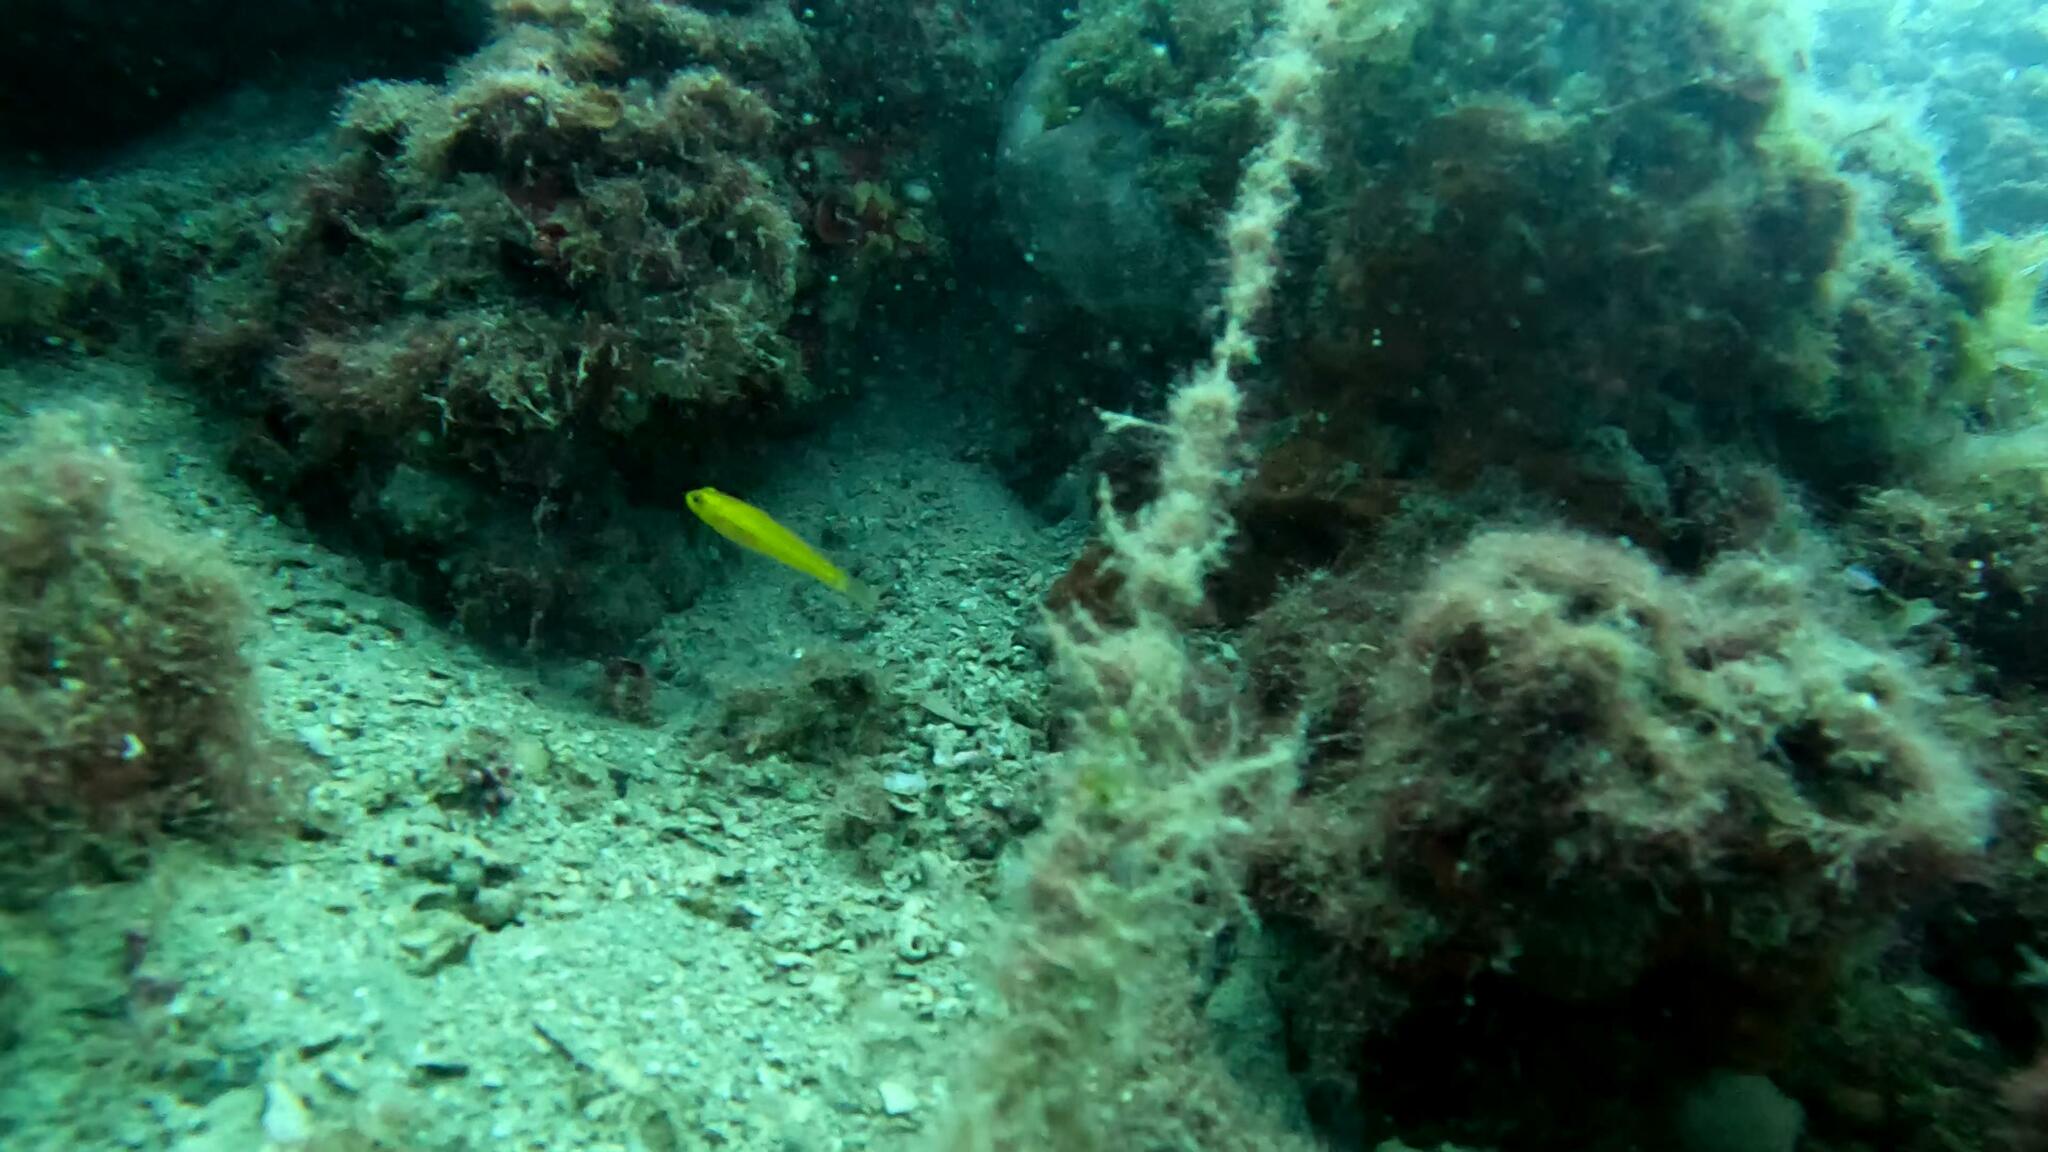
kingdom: Animalia
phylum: Chordata
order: Perciformes
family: Gobiidae
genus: Gobius
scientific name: Gobius auratus
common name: Golden goby
